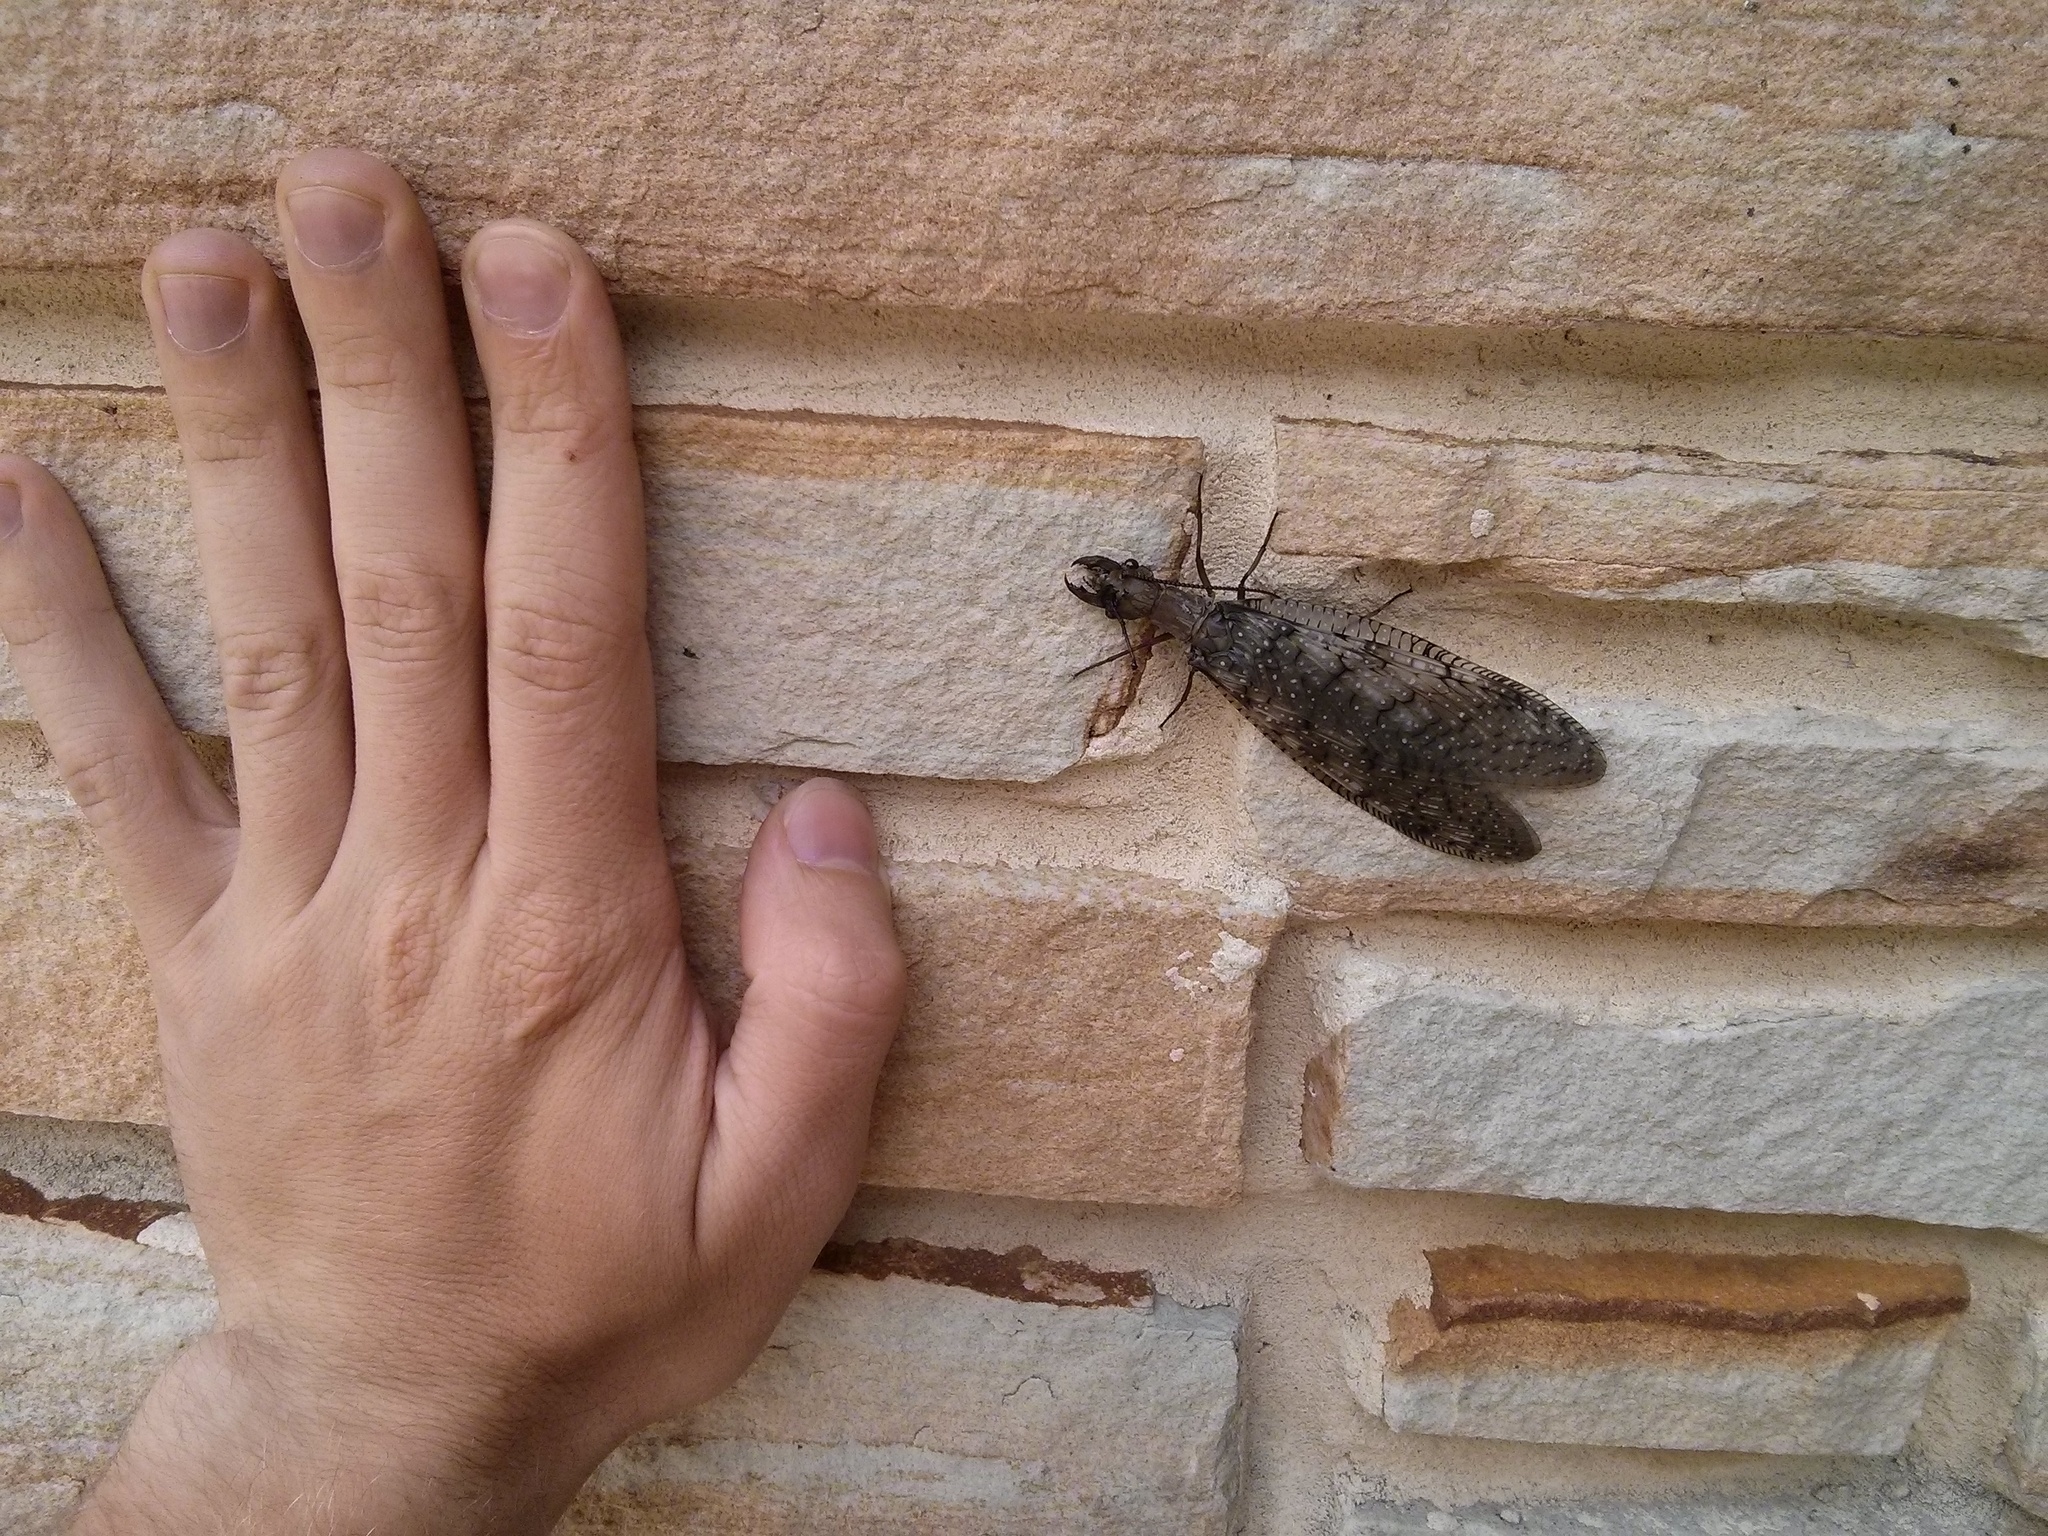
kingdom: Animalia
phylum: Arthropoda
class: Insecta
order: Megaloptera
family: Corydalidae
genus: Corydalus
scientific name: Corydalus cornutus
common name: Dobsonfly
